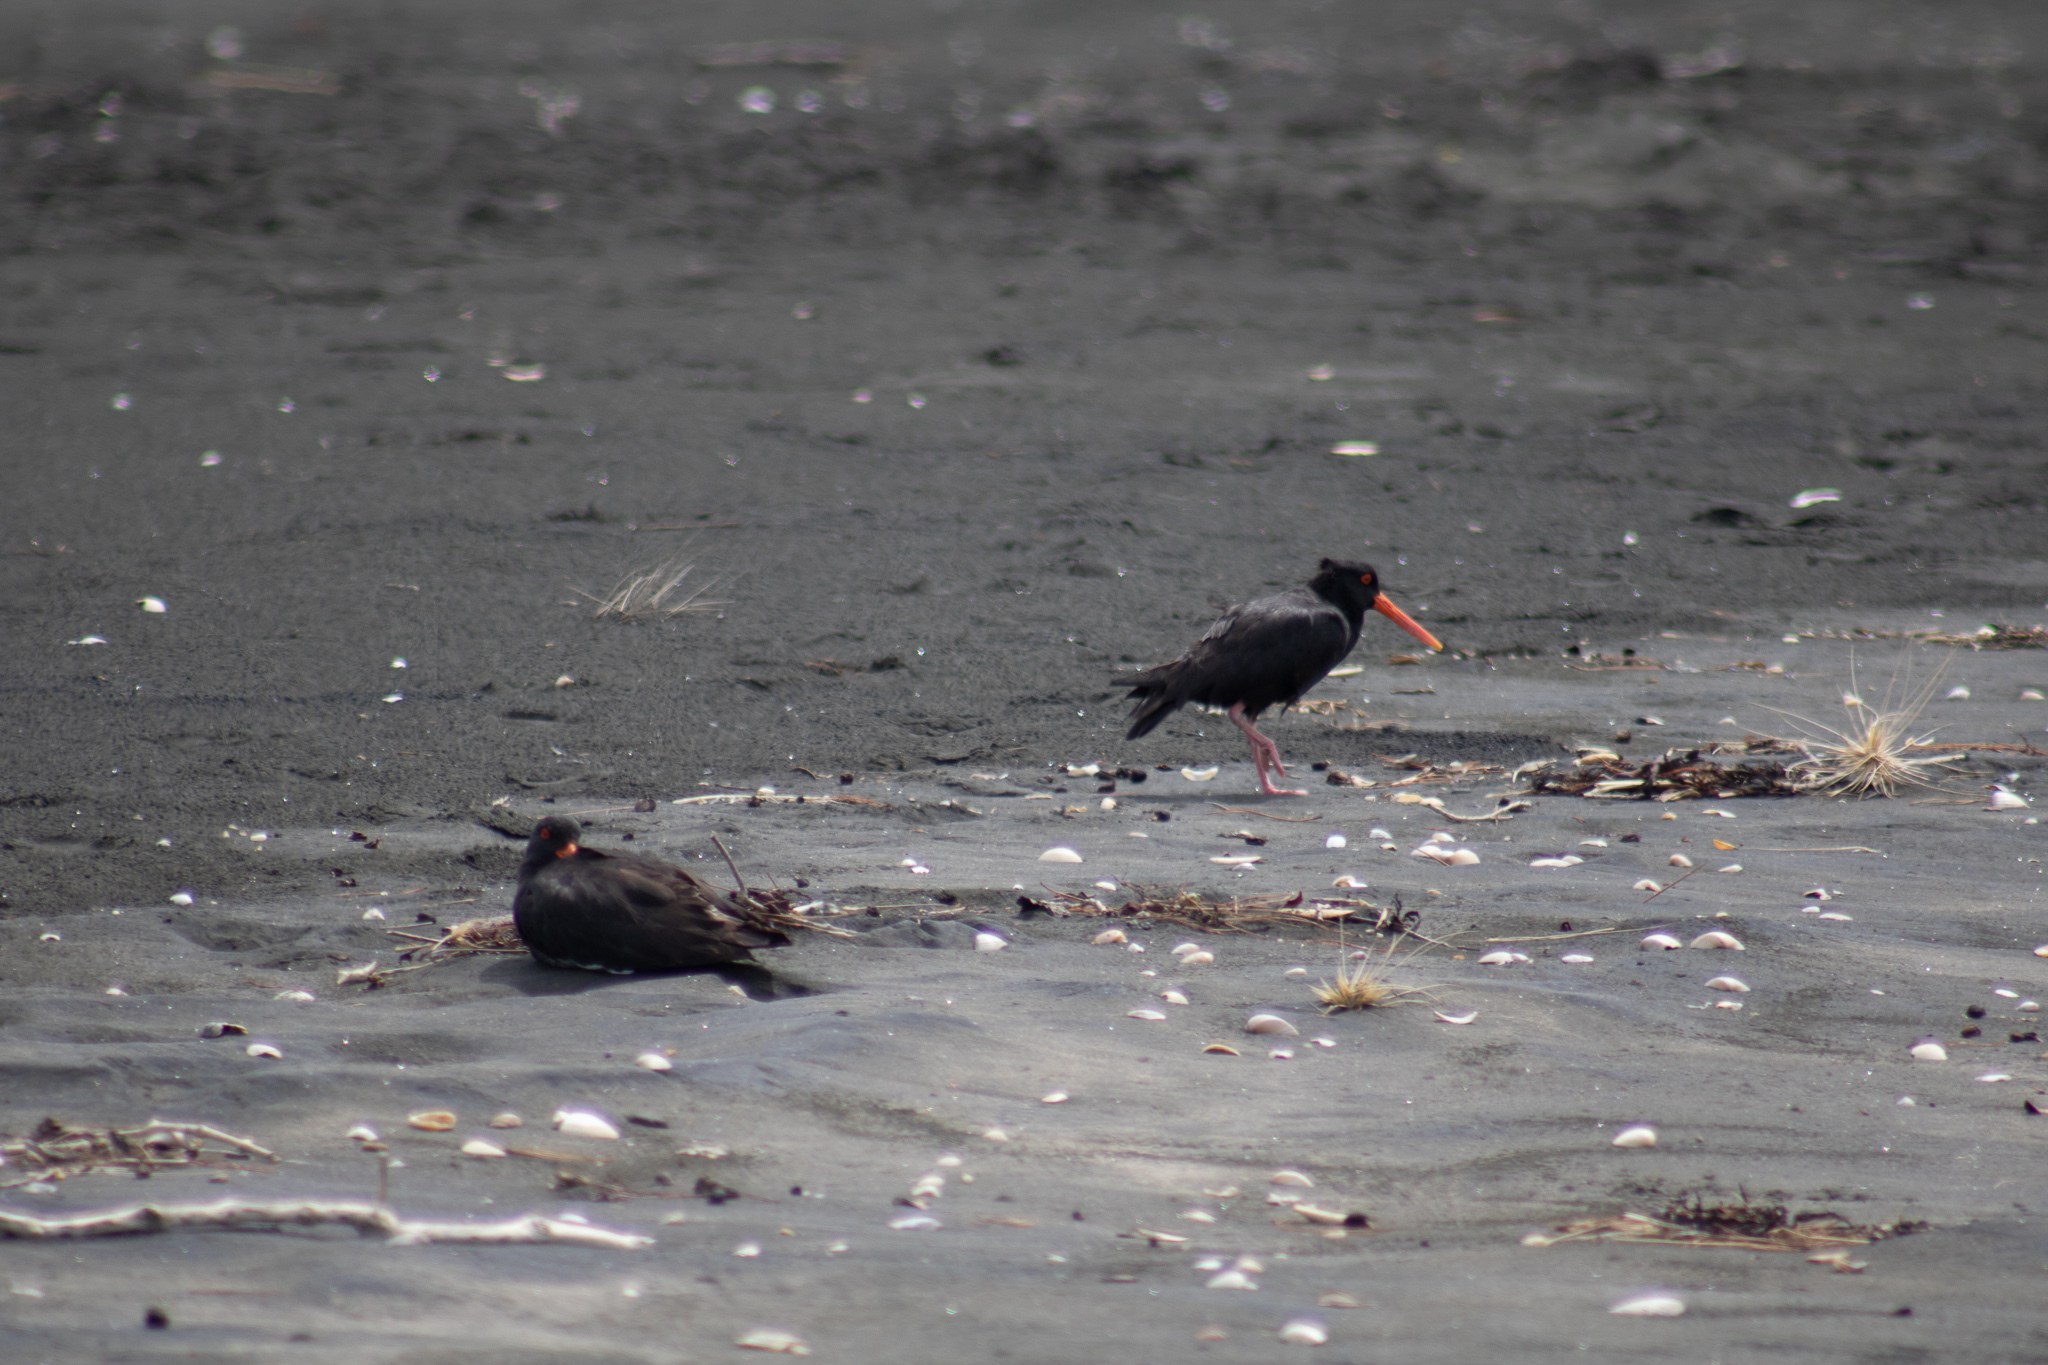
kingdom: Animalia
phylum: Chordata
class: Aves
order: Charadriiformes
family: Haematopodidae
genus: Haematopus
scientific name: Haematopus unicolor
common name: Variable oystercatcher
